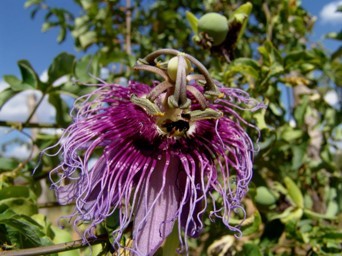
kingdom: Plantae
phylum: Tracheophyta
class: Magnoliopsida
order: Malpighiales
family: Passifloraceae
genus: Passiflora
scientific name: Passiflora cincinnata
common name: Crato passionvine
